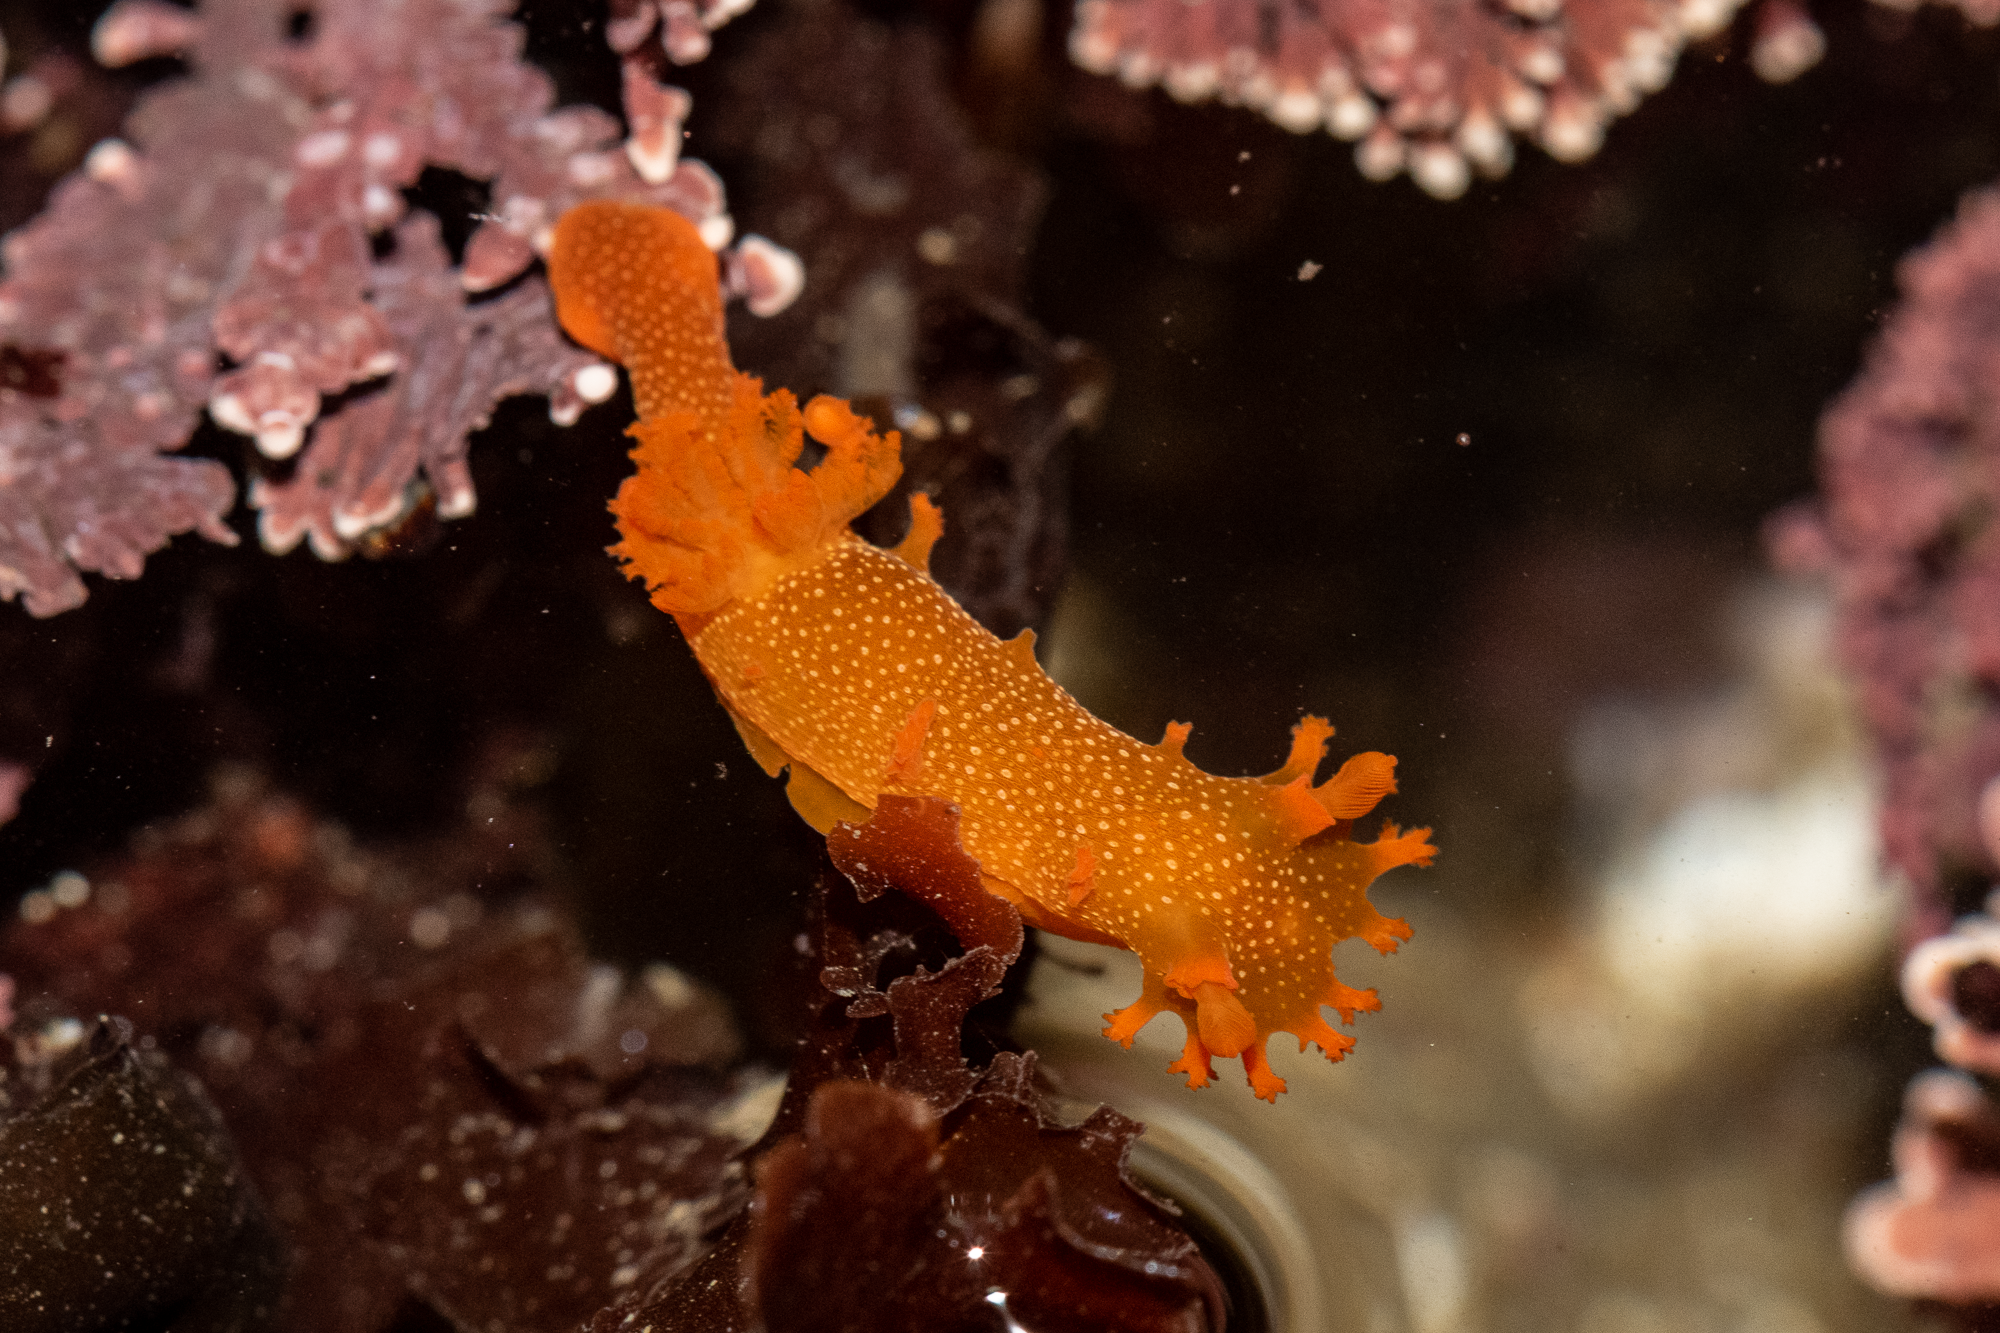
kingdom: Animalia
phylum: Mollusca
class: Gastropoda
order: Nudibranchia
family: Polyceridae
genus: Triopha
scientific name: Triopha maculata
